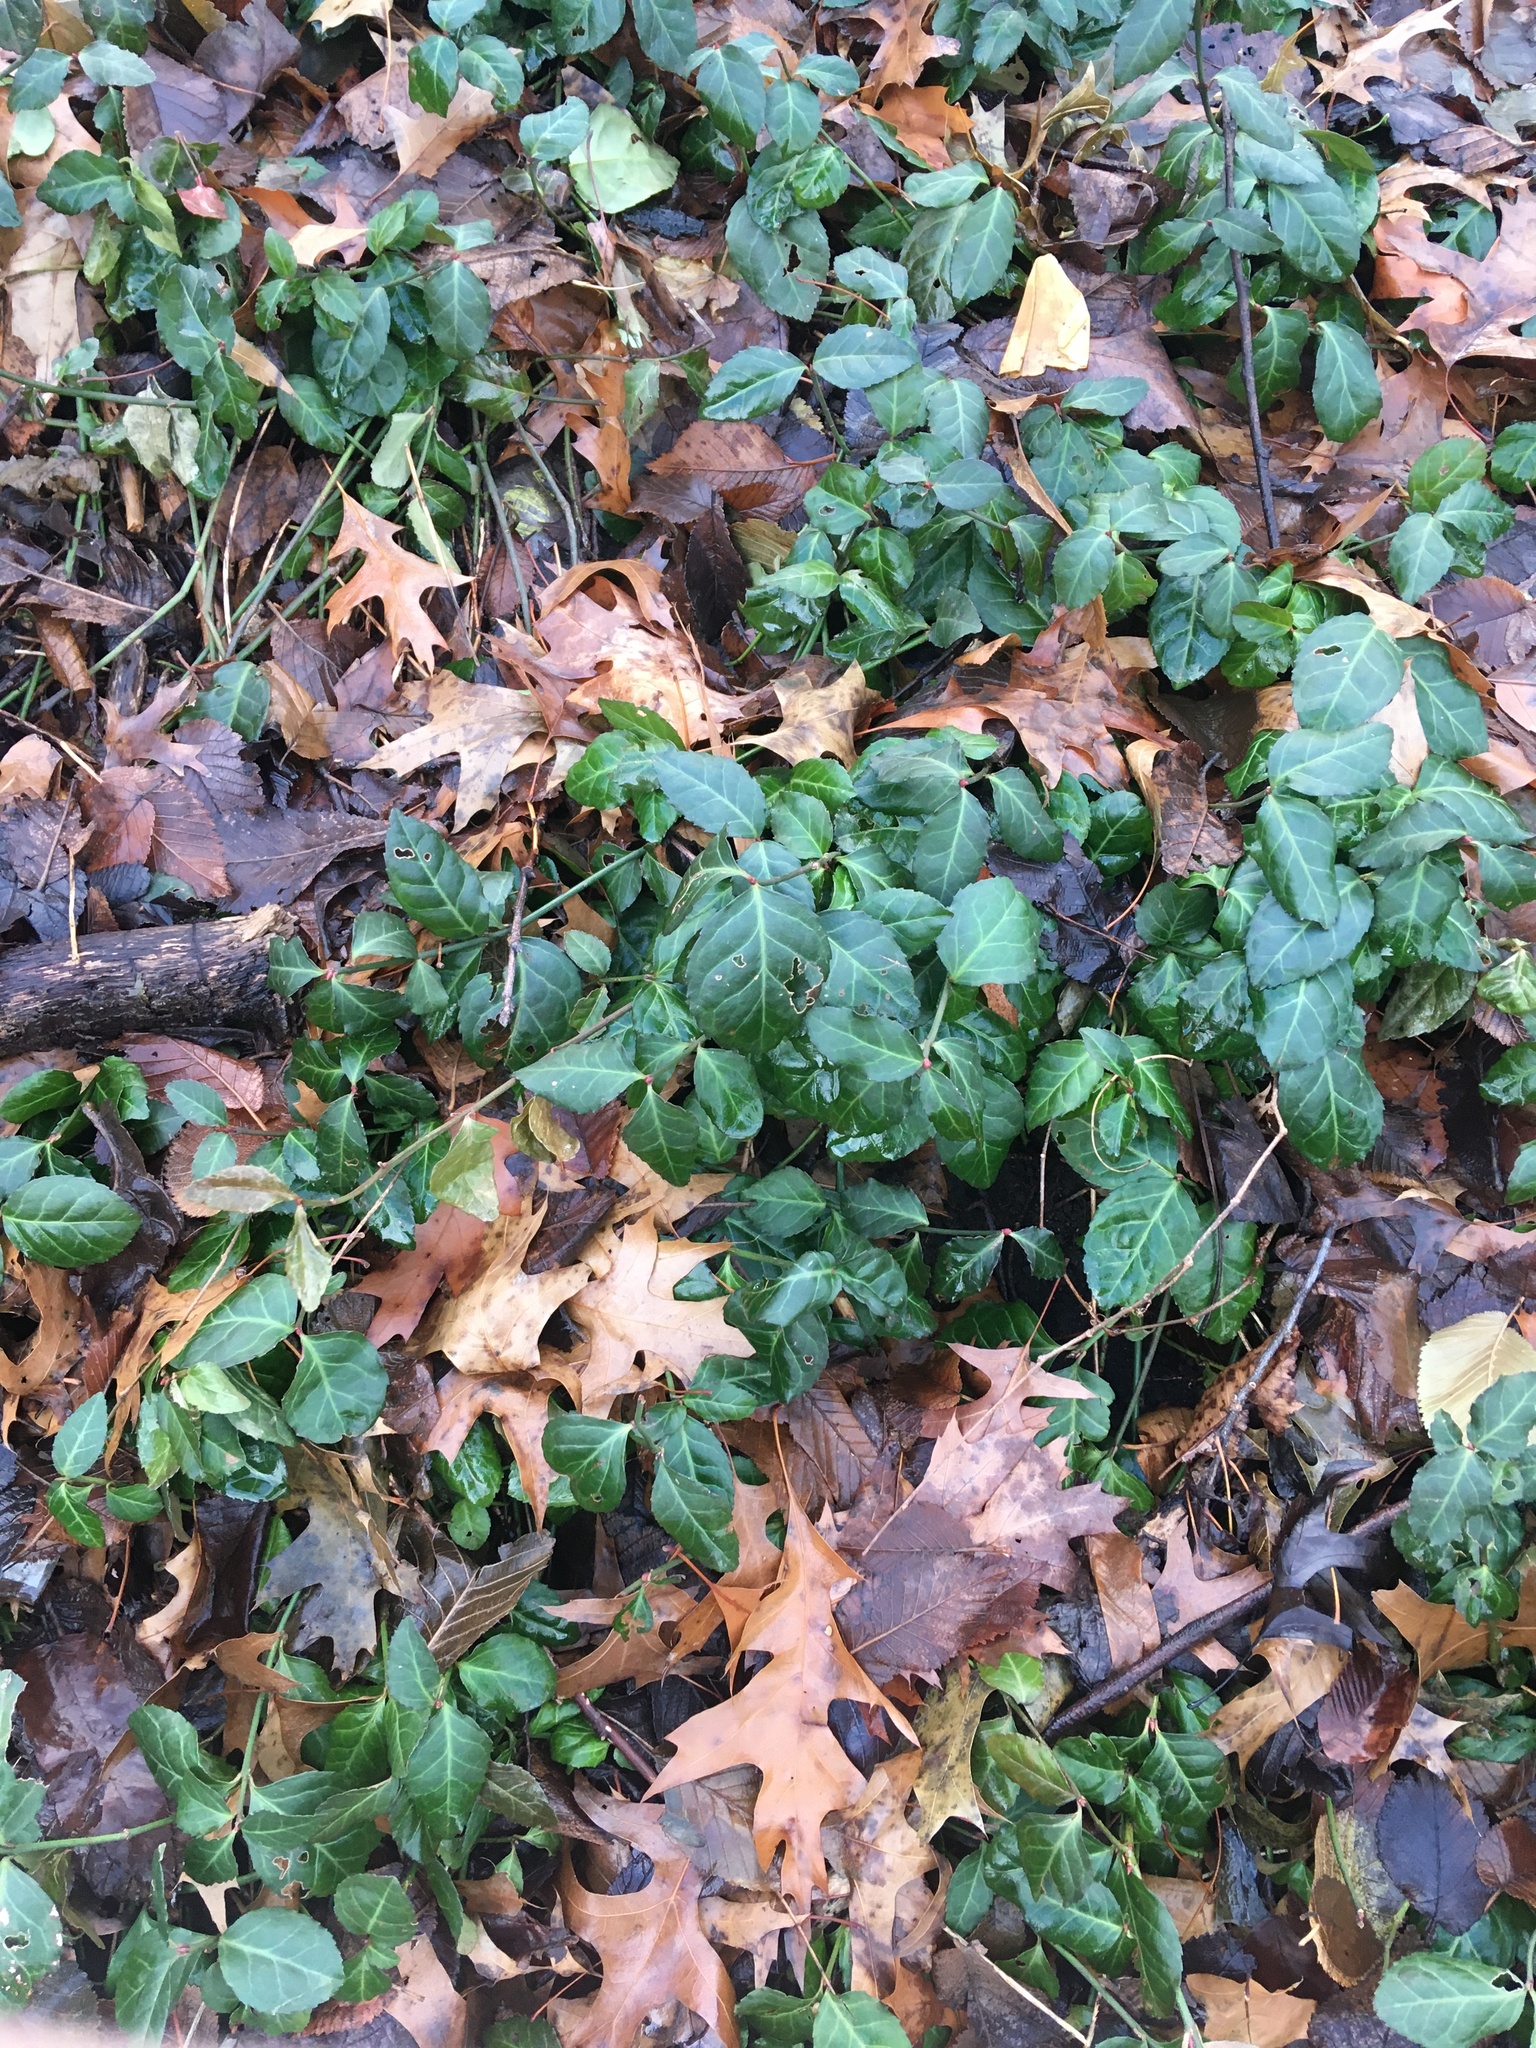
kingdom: Plantae
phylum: Tracheophyta
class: Magnoliopsida
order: Celastrales
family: Celastraceae
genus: Euonymus
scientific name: Euonymus fortunei
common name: Climbing euonymus
